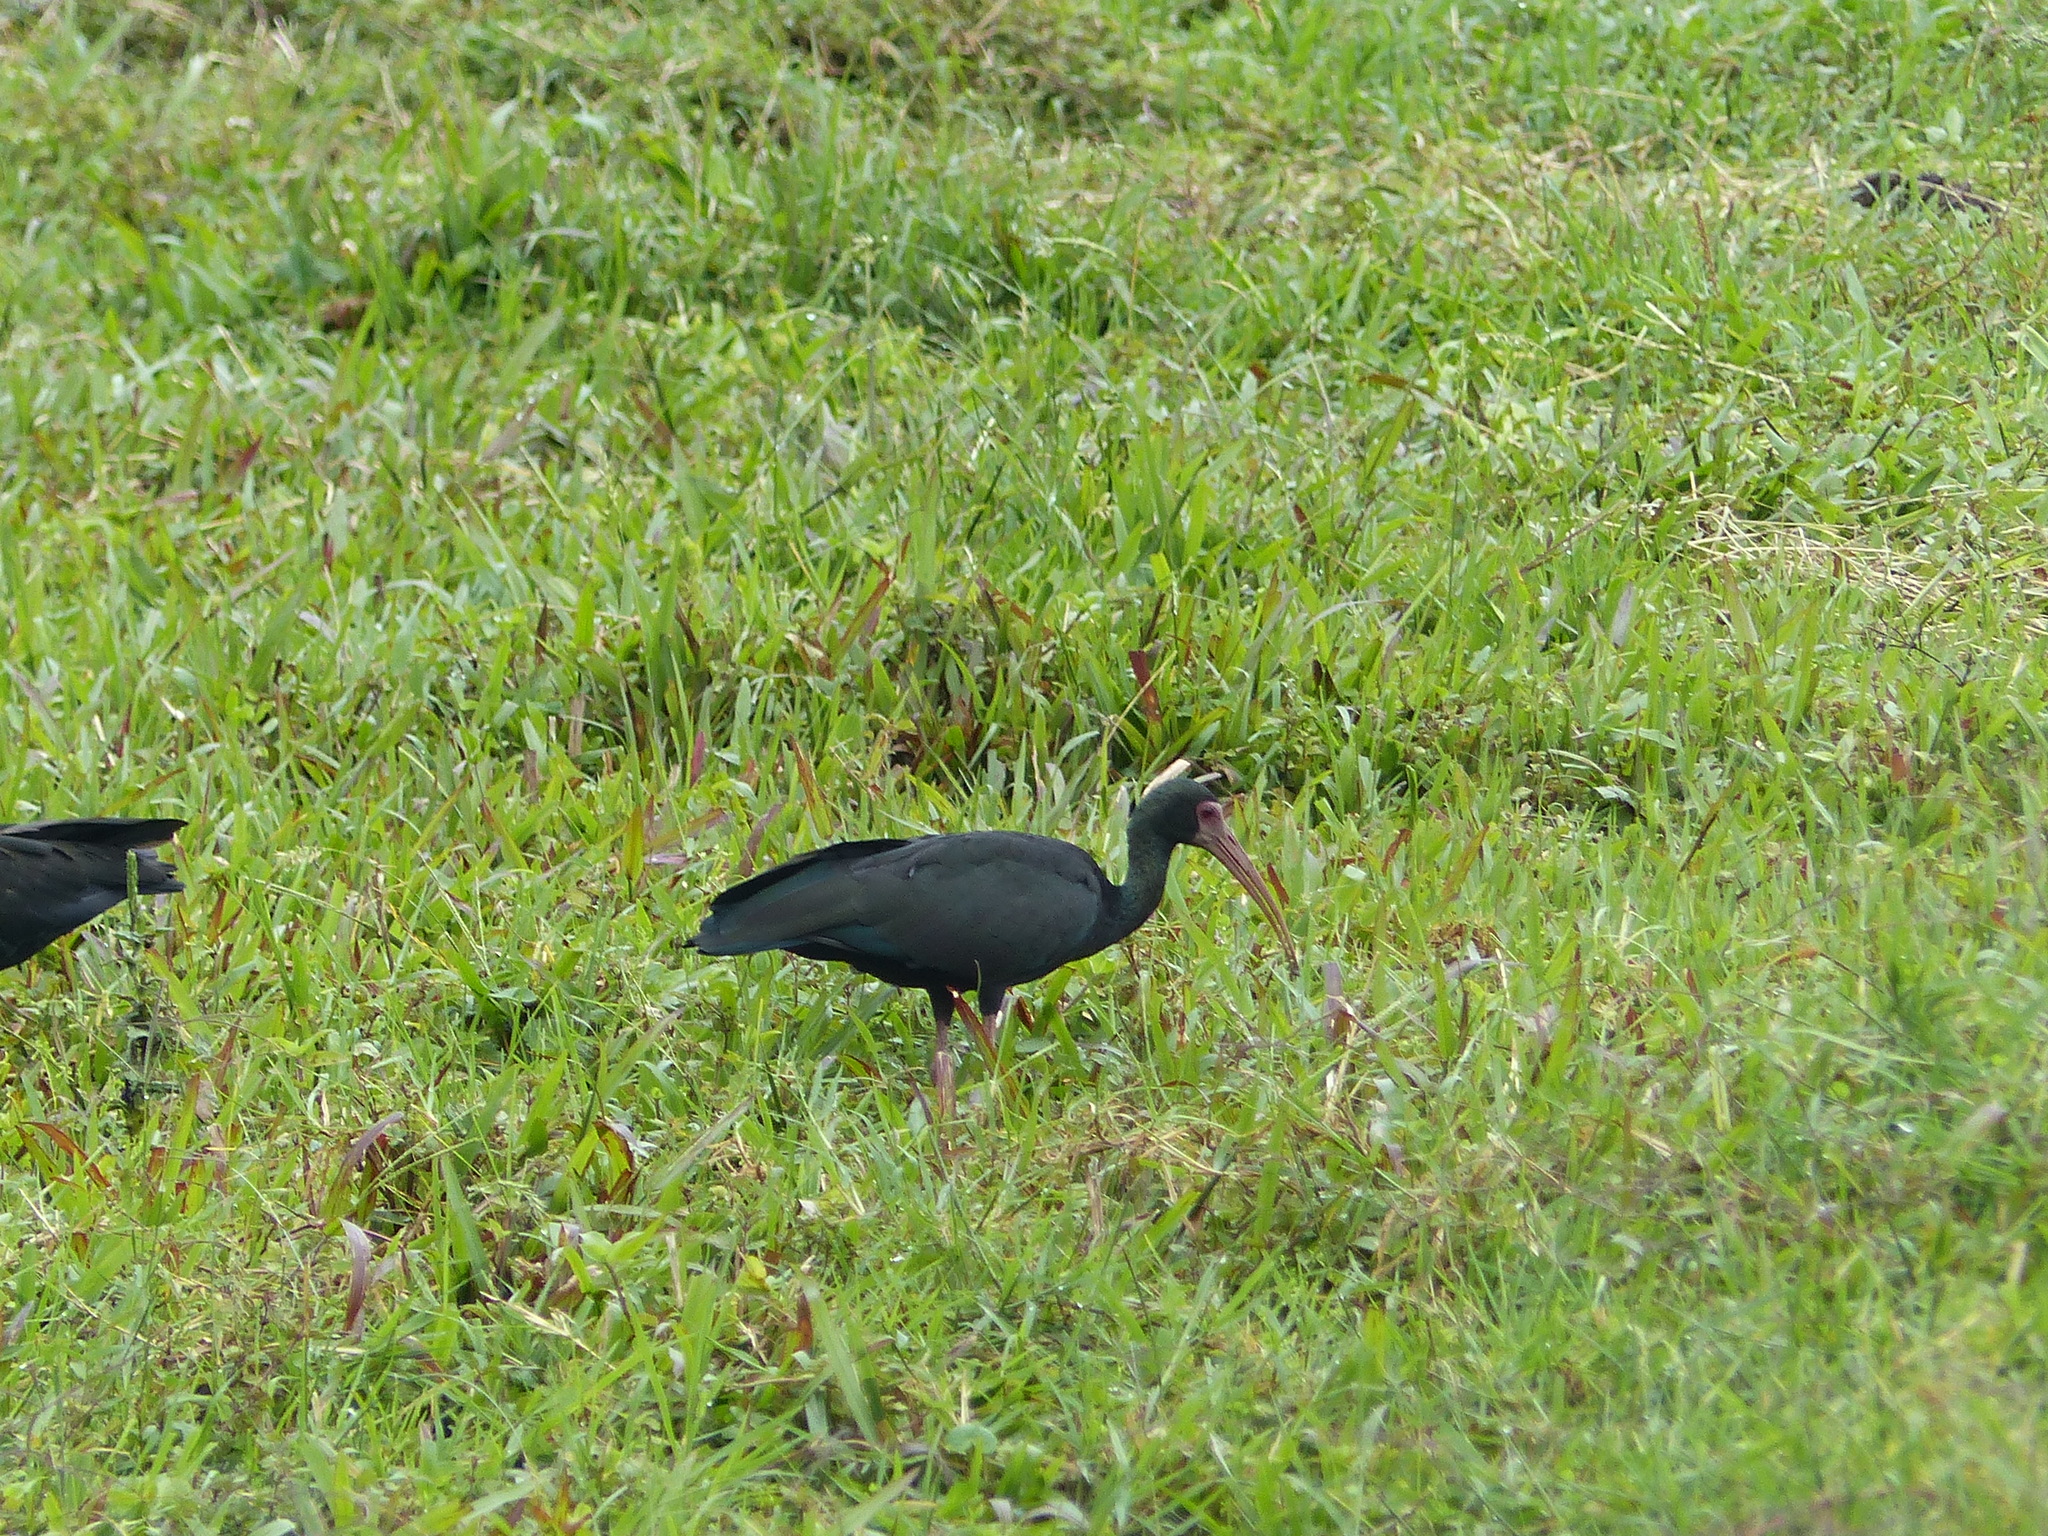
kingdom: Animalia
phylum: Chordata
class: Aves
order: Pelecaniformes
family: Threskiornithidae
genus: Phimosus
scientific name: Phimosus infuscatus
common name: Bare-faced ibis
